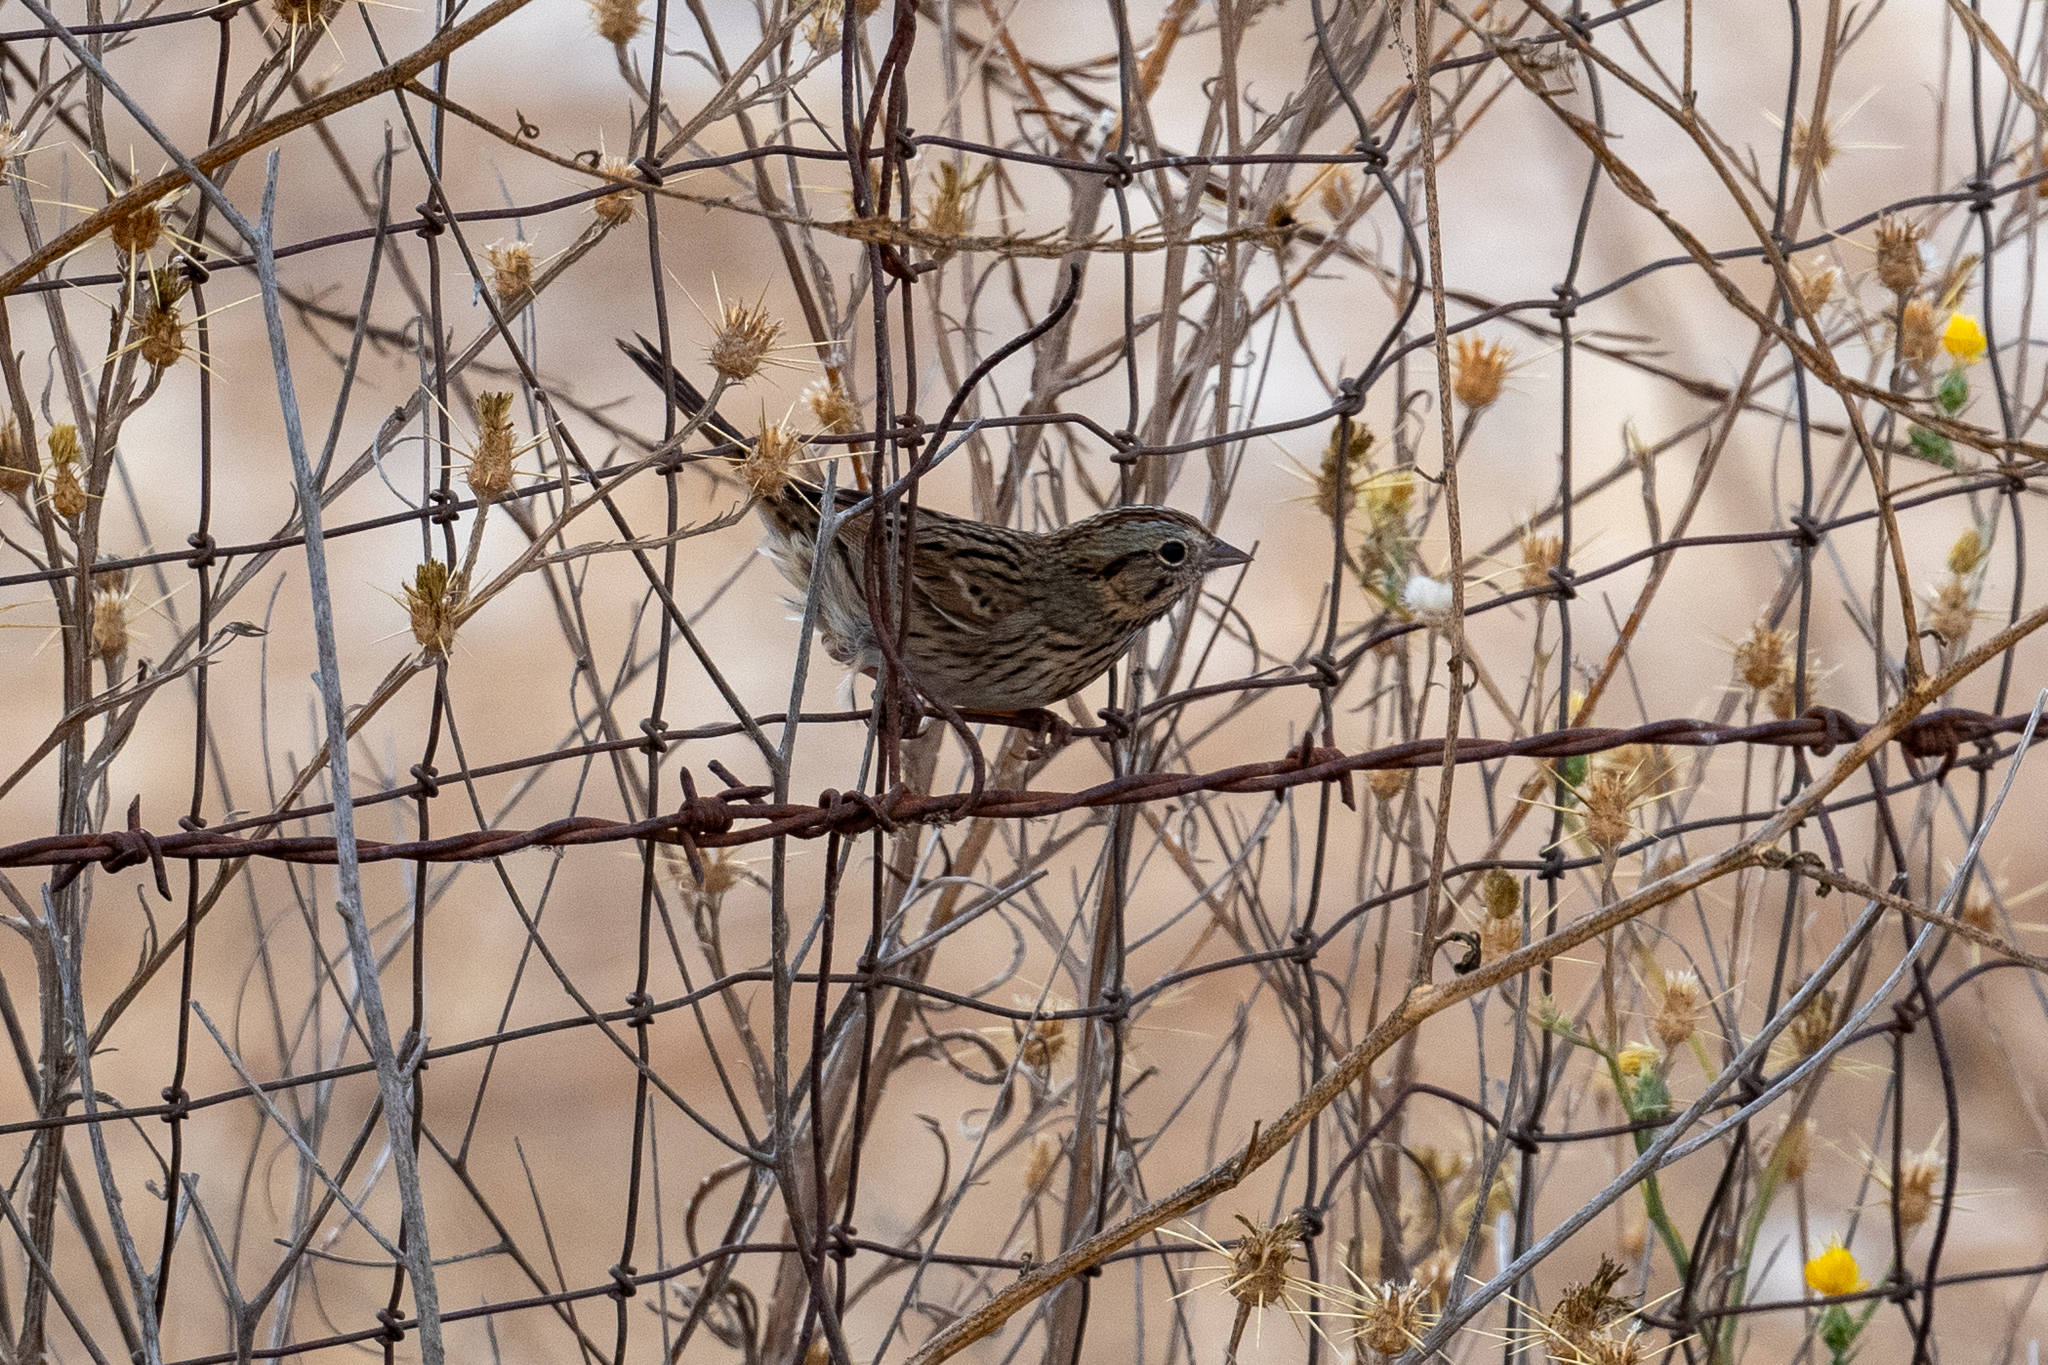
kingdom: Animalia
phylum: Chordata
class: Aves
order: Passeriformes
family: Passerellidae
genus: Melospiza
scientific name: Melospiza lincolnii
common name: Lincoln's sparrow
